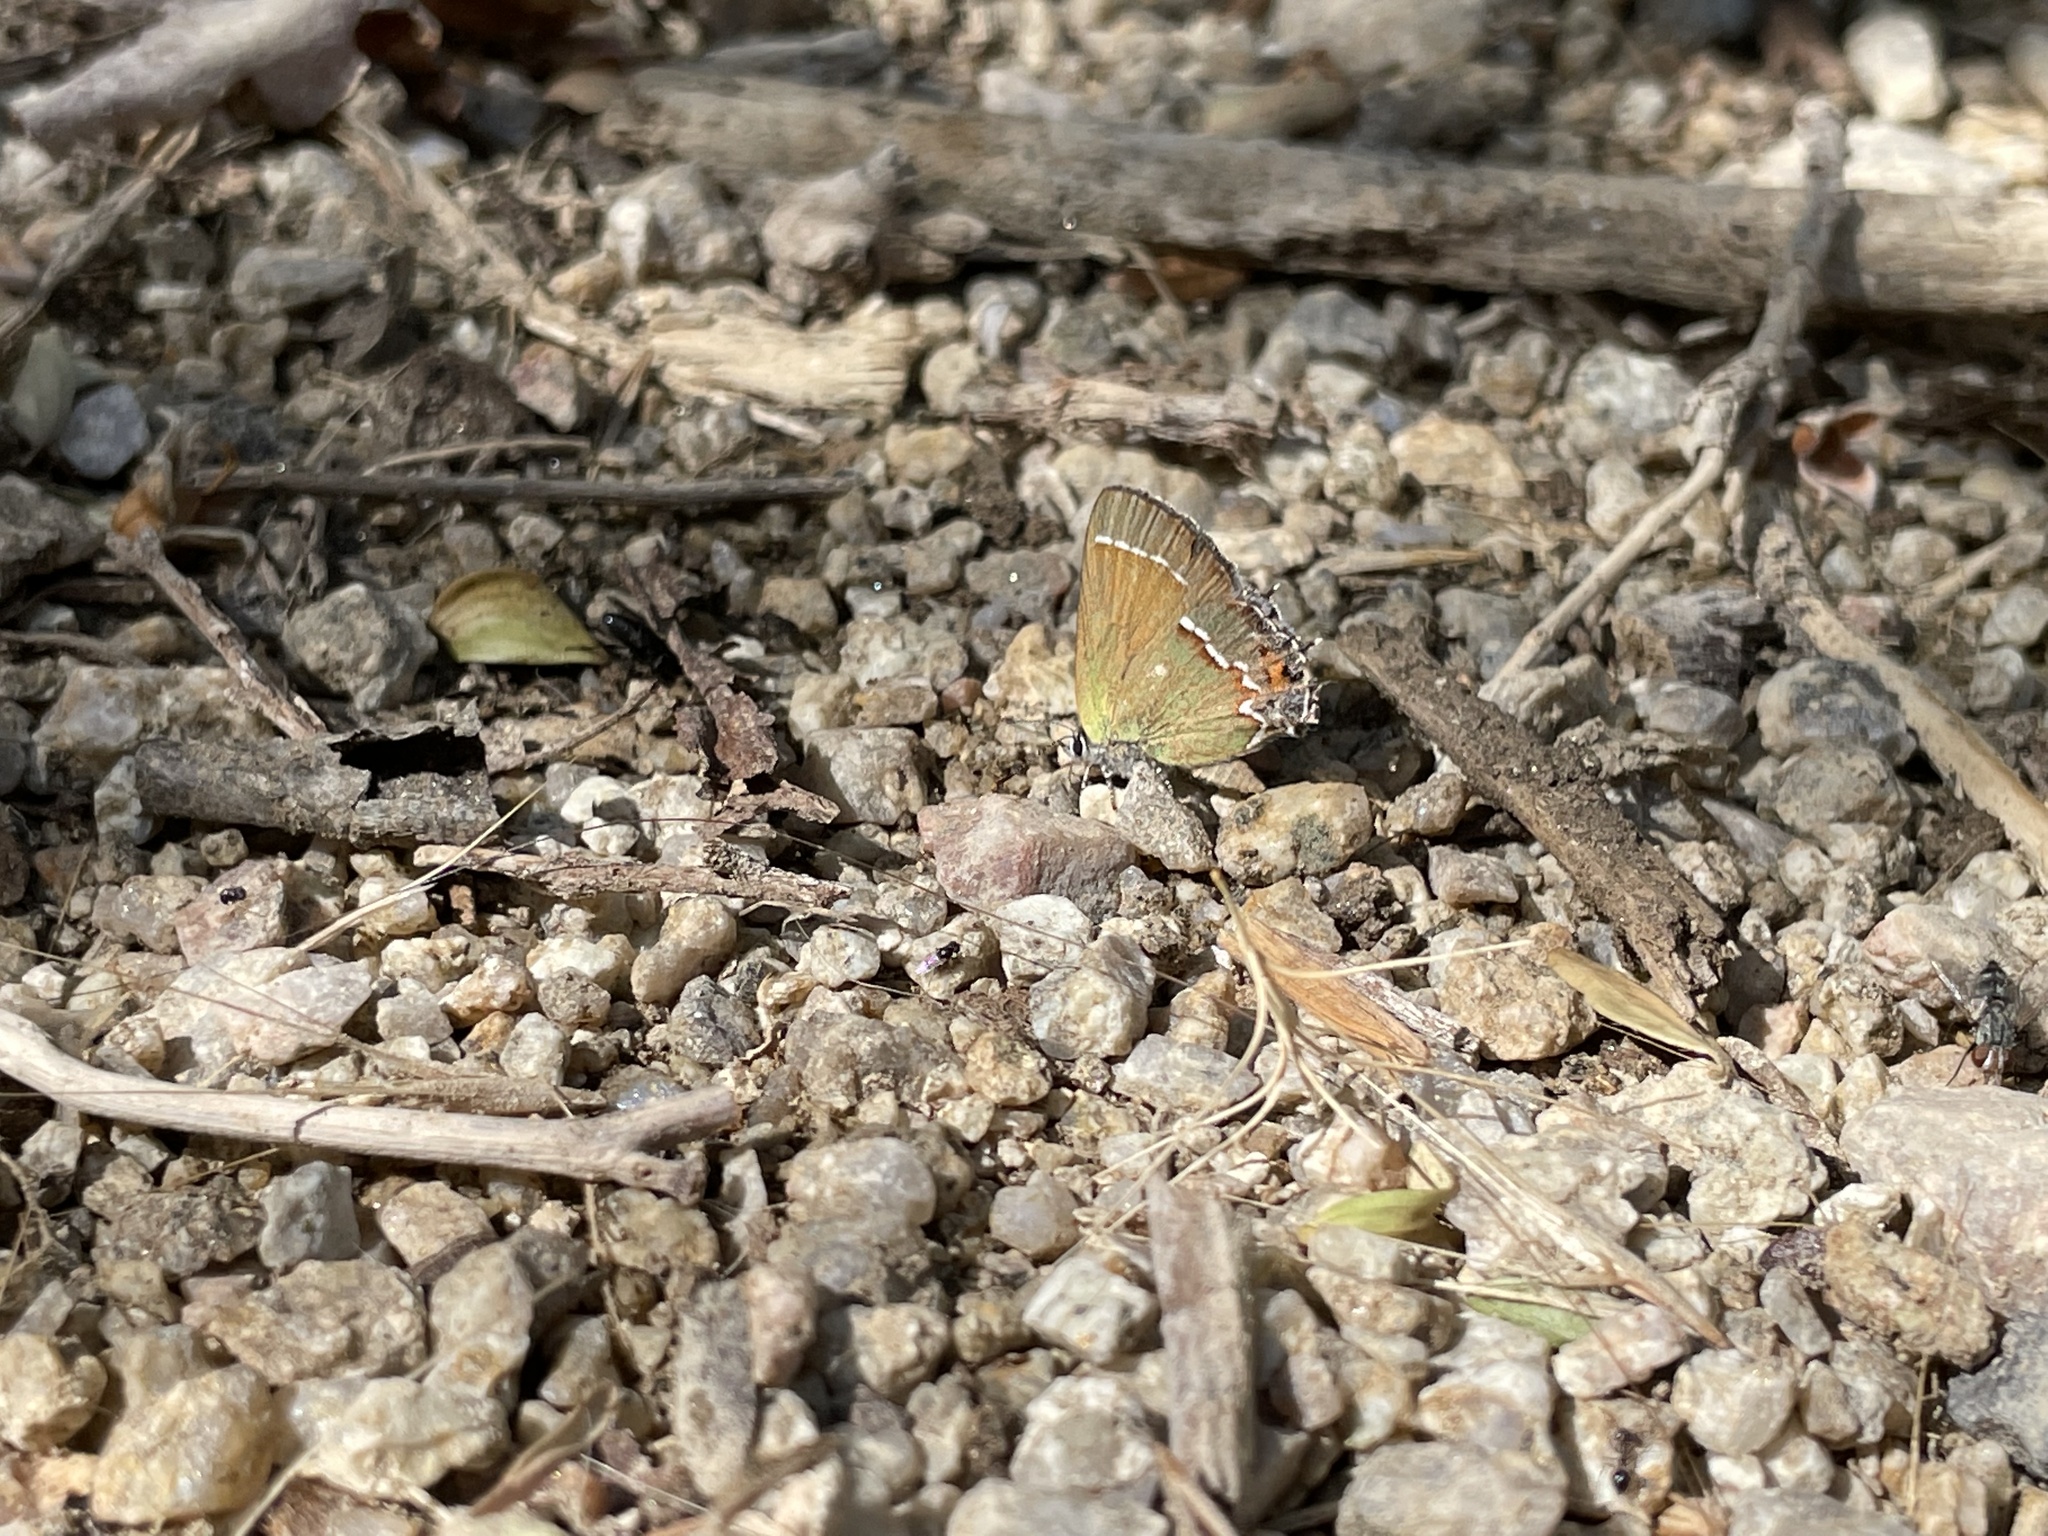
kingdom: Animalia
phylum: Arthropoda
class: Insecta
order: Lepidoptera
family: Lycaenidae
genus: Mitoura
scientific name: Mitoura gryneus
